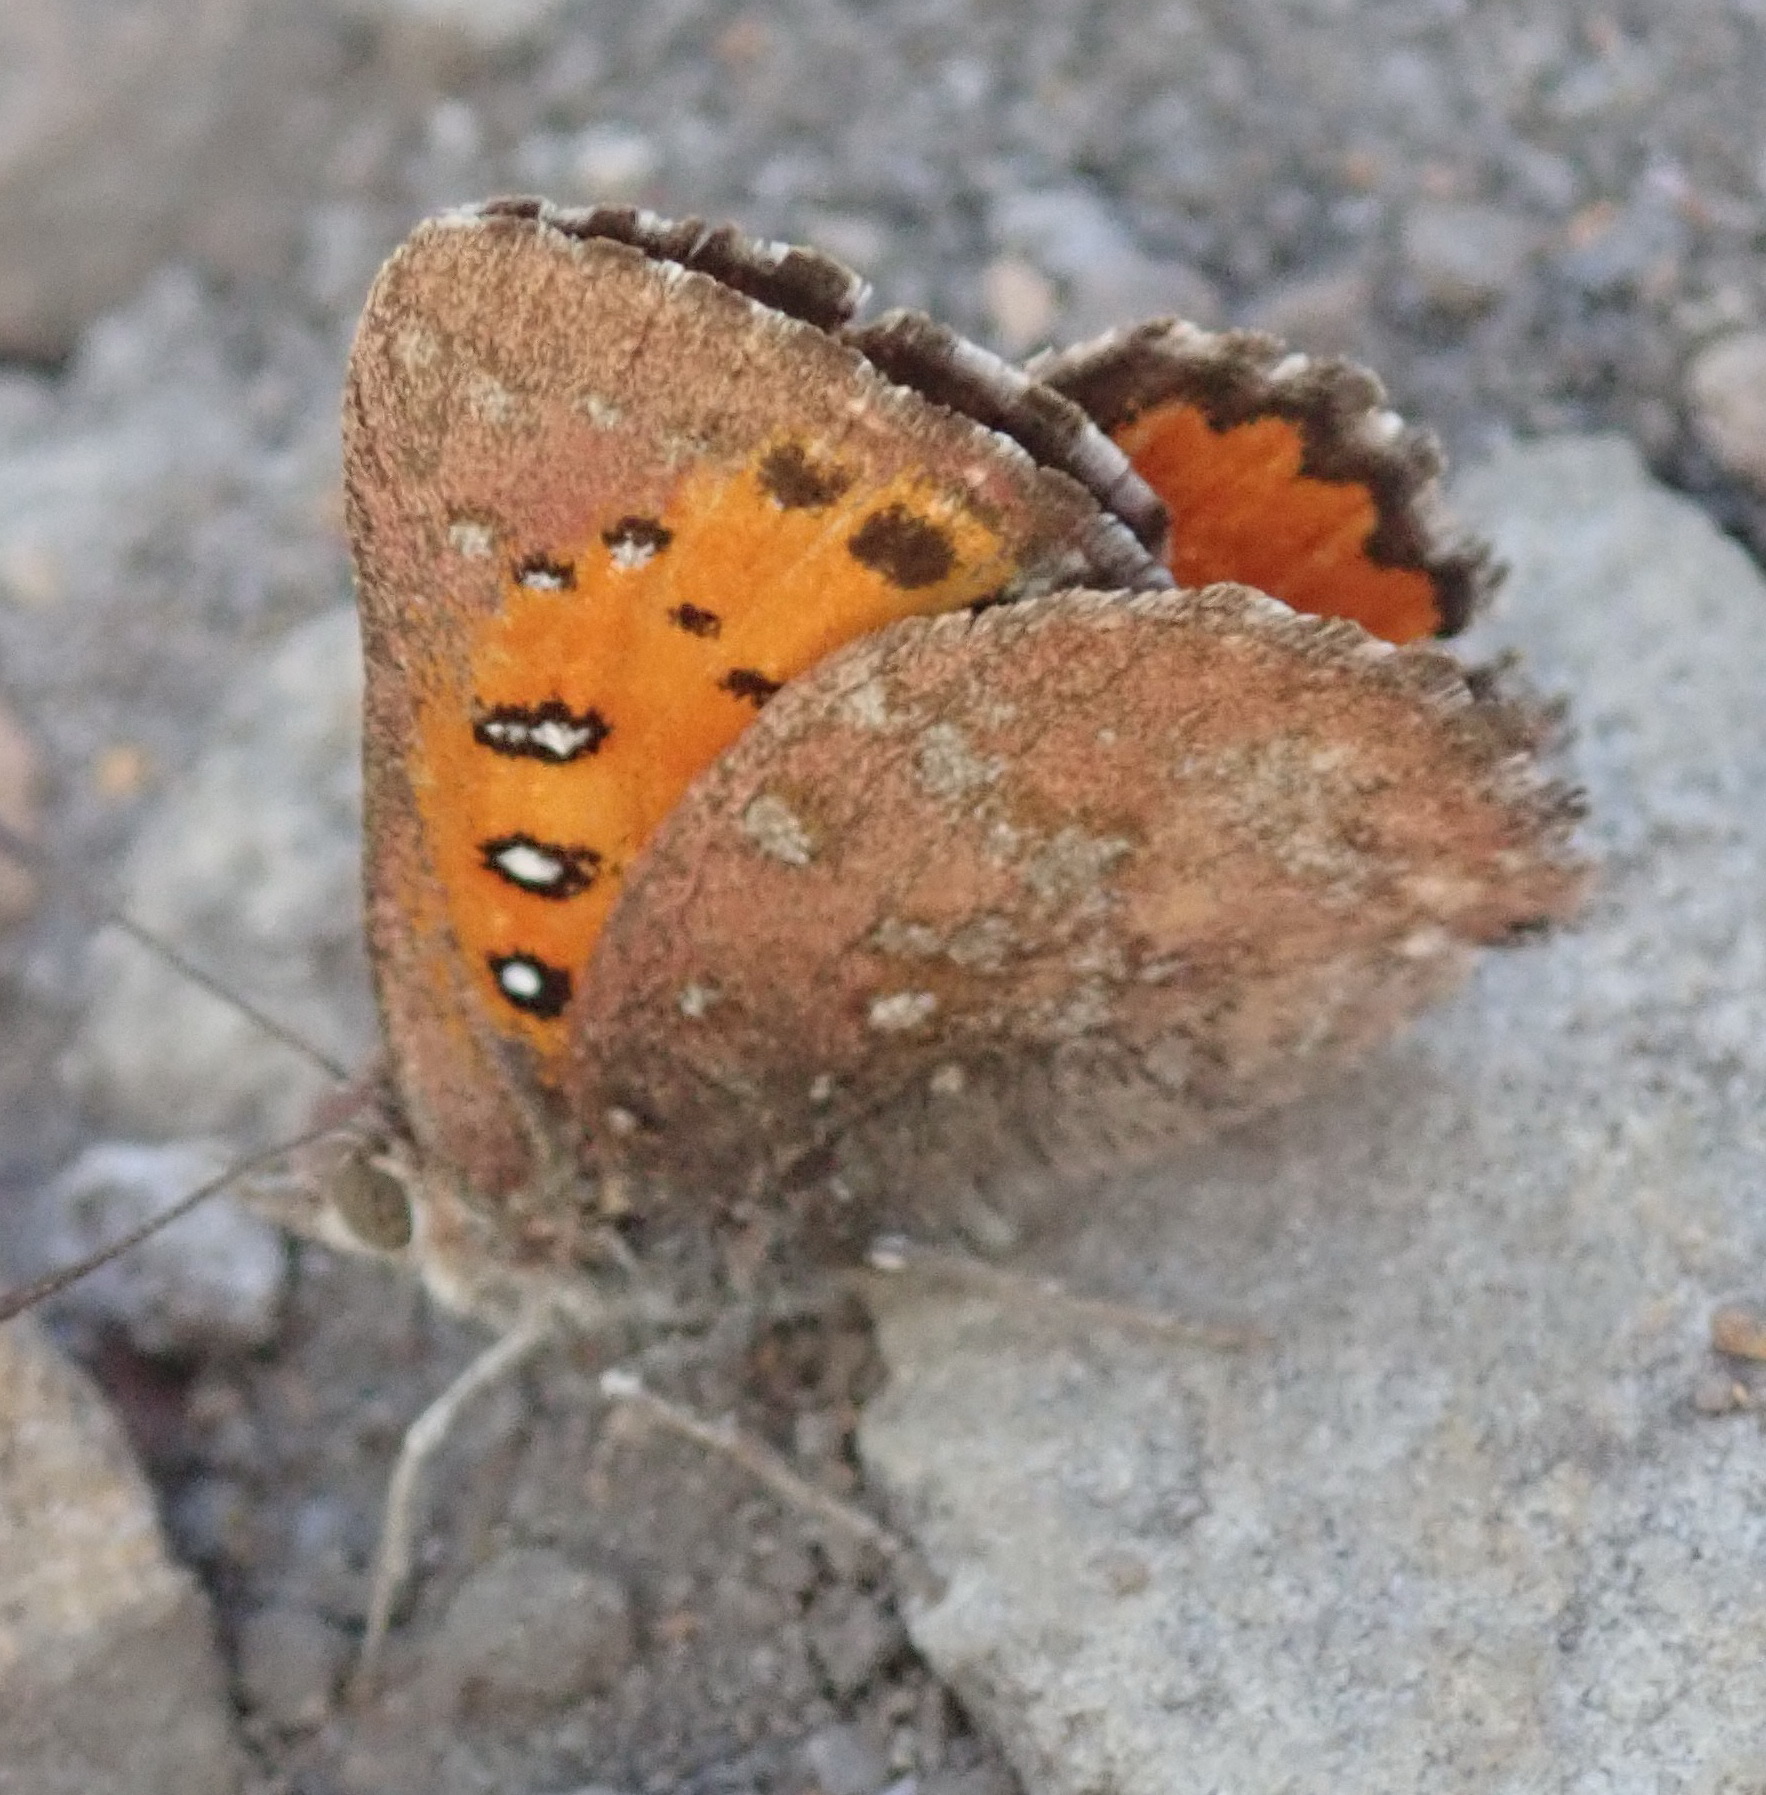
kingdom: Animalia
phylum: Arthropoda
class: Insecta
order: Lepidoptera
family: Lycaenidae
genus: Aloeides
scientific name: Aloeides vansoni
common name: Van son's copper
